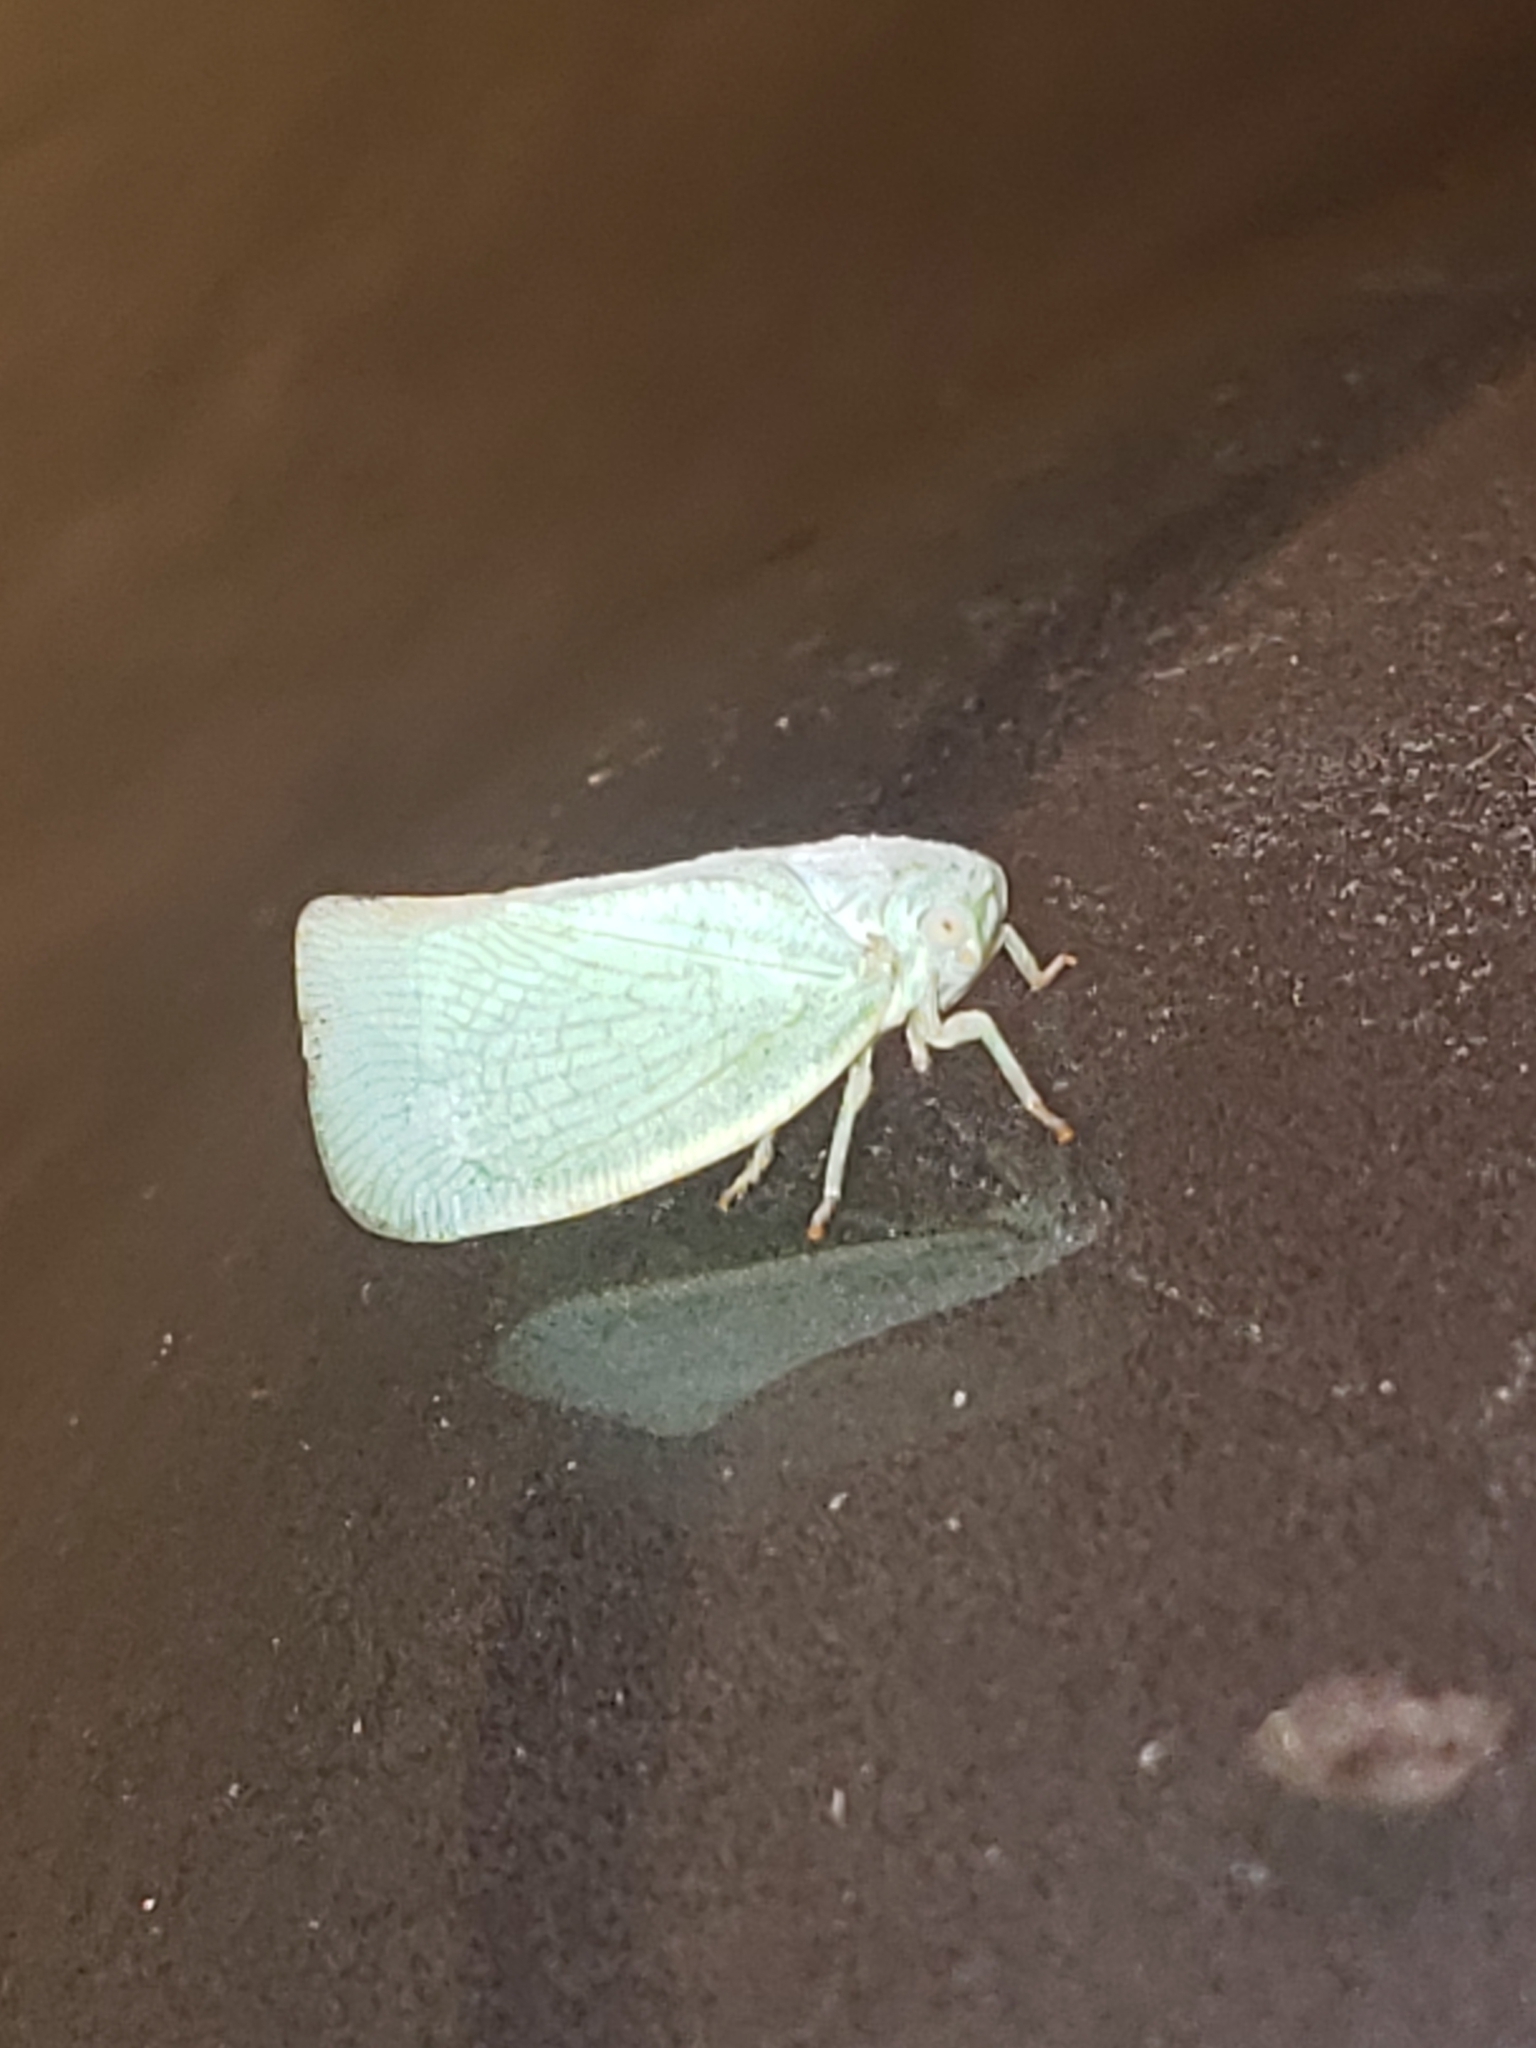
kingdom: Animalia
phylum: Arthropoda
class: Insecta
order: Hemiptera
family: Flatidae
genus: Flatormenis
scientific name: Flatormenis proxima
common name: Northern flatid planthopper
